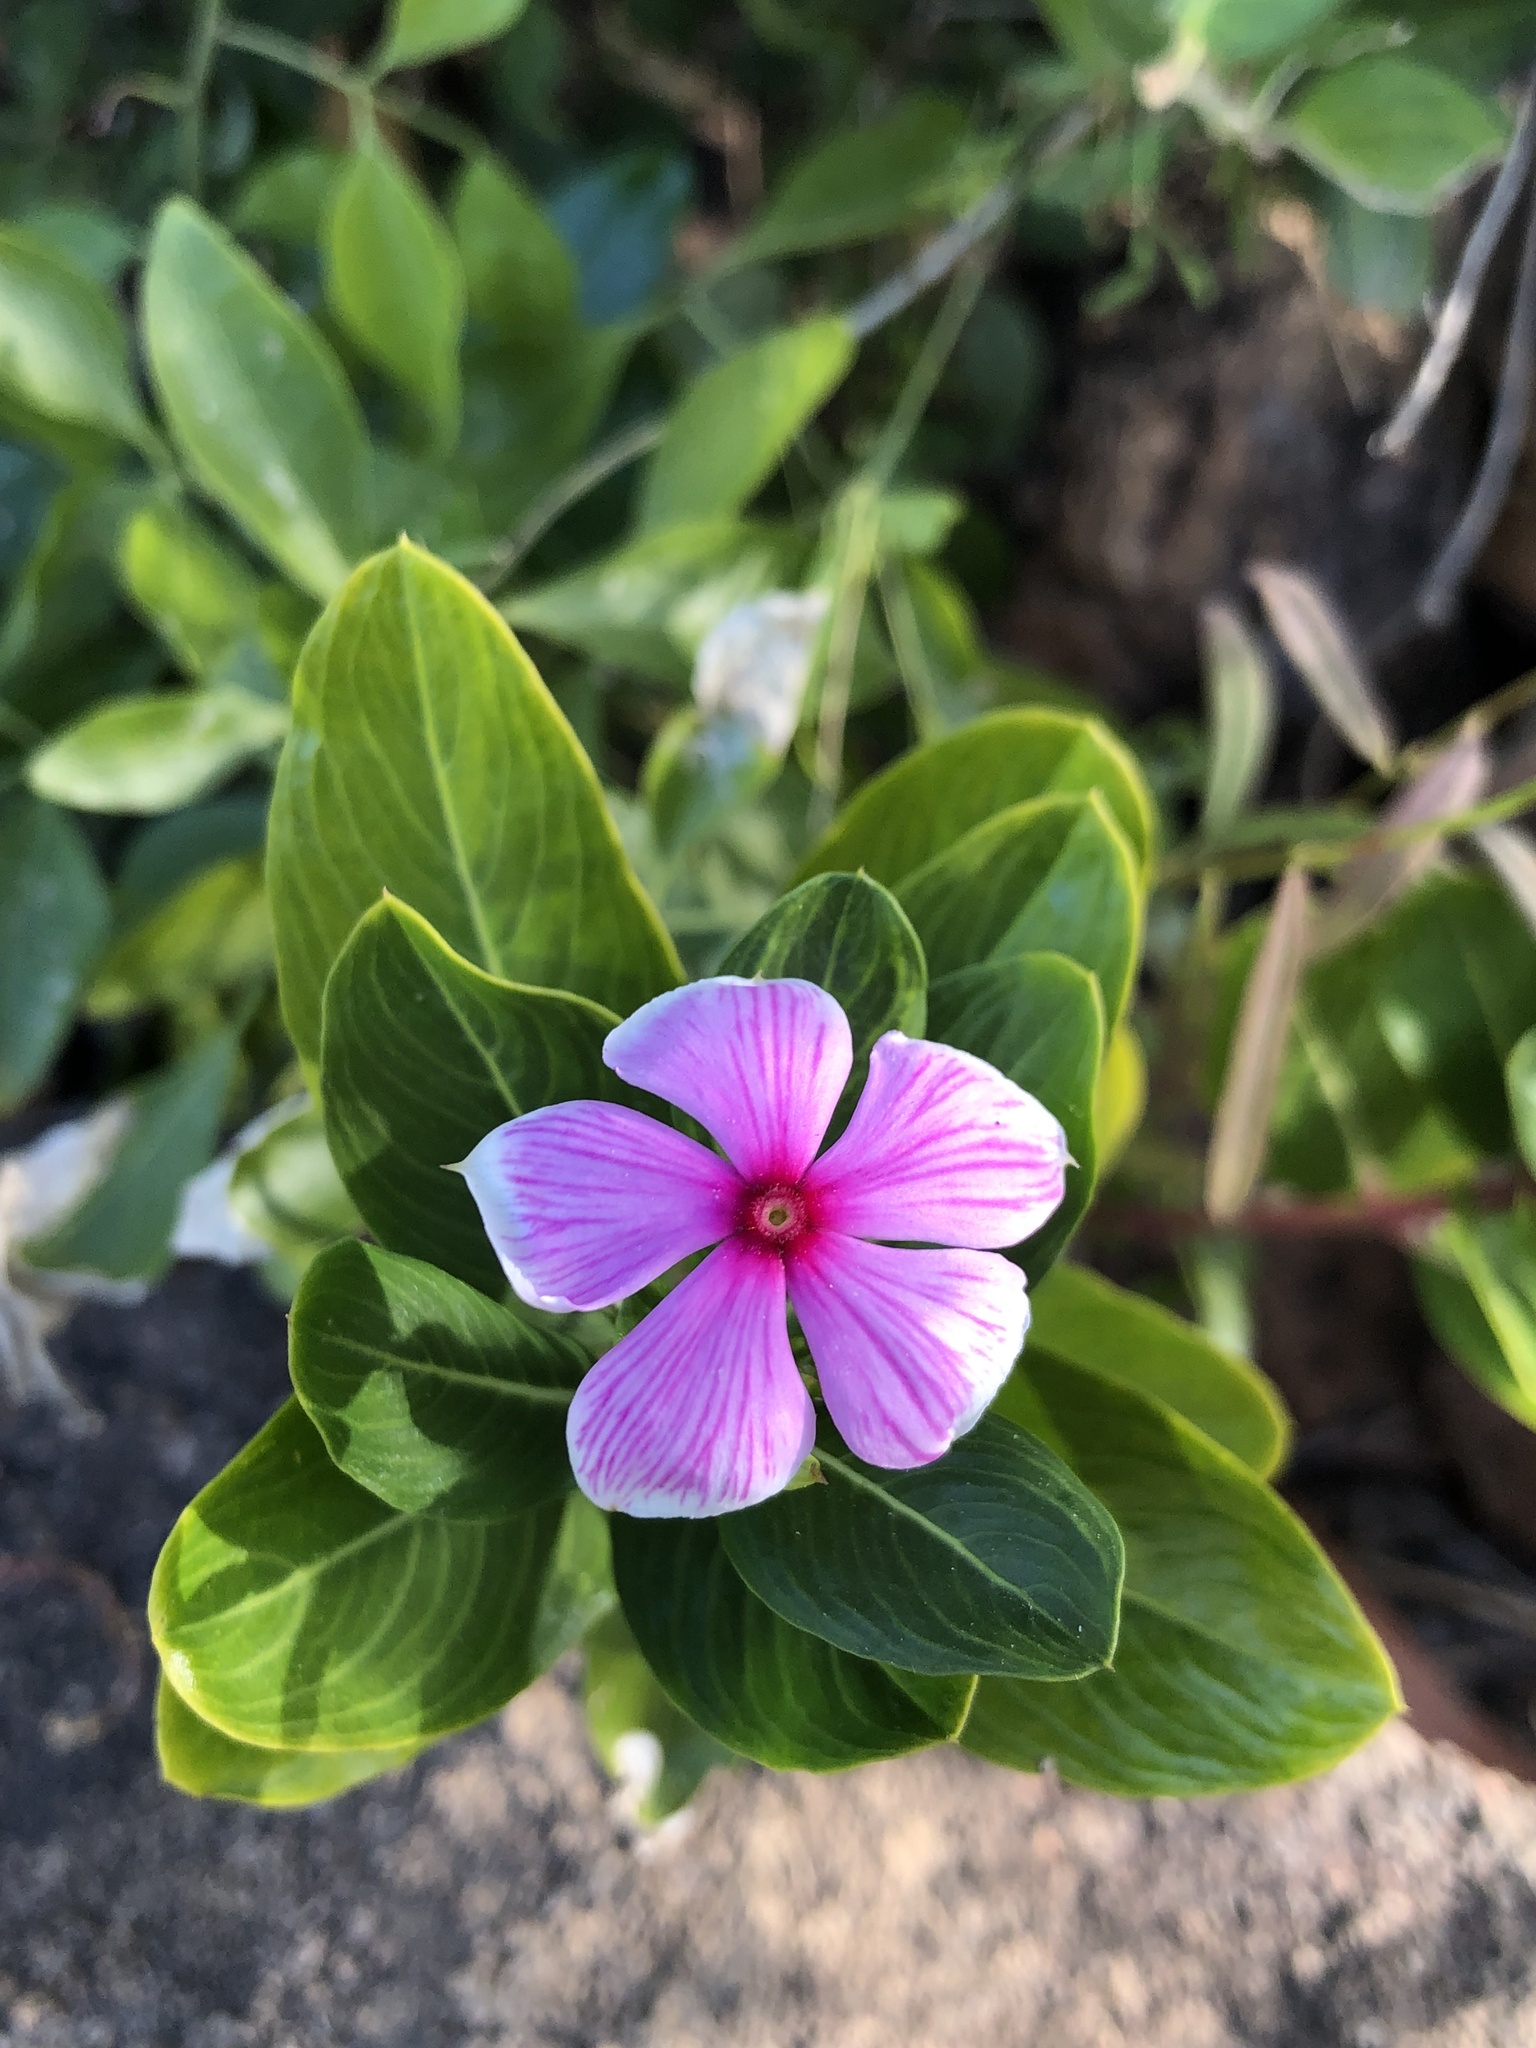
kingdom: Plantae
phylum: Tracheophyta
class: Magnoliopsida
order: Gentianales
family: Apocynaceae
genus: Catharanthus
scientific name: Catharanthus roseus
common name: Madagascar periwinkle
